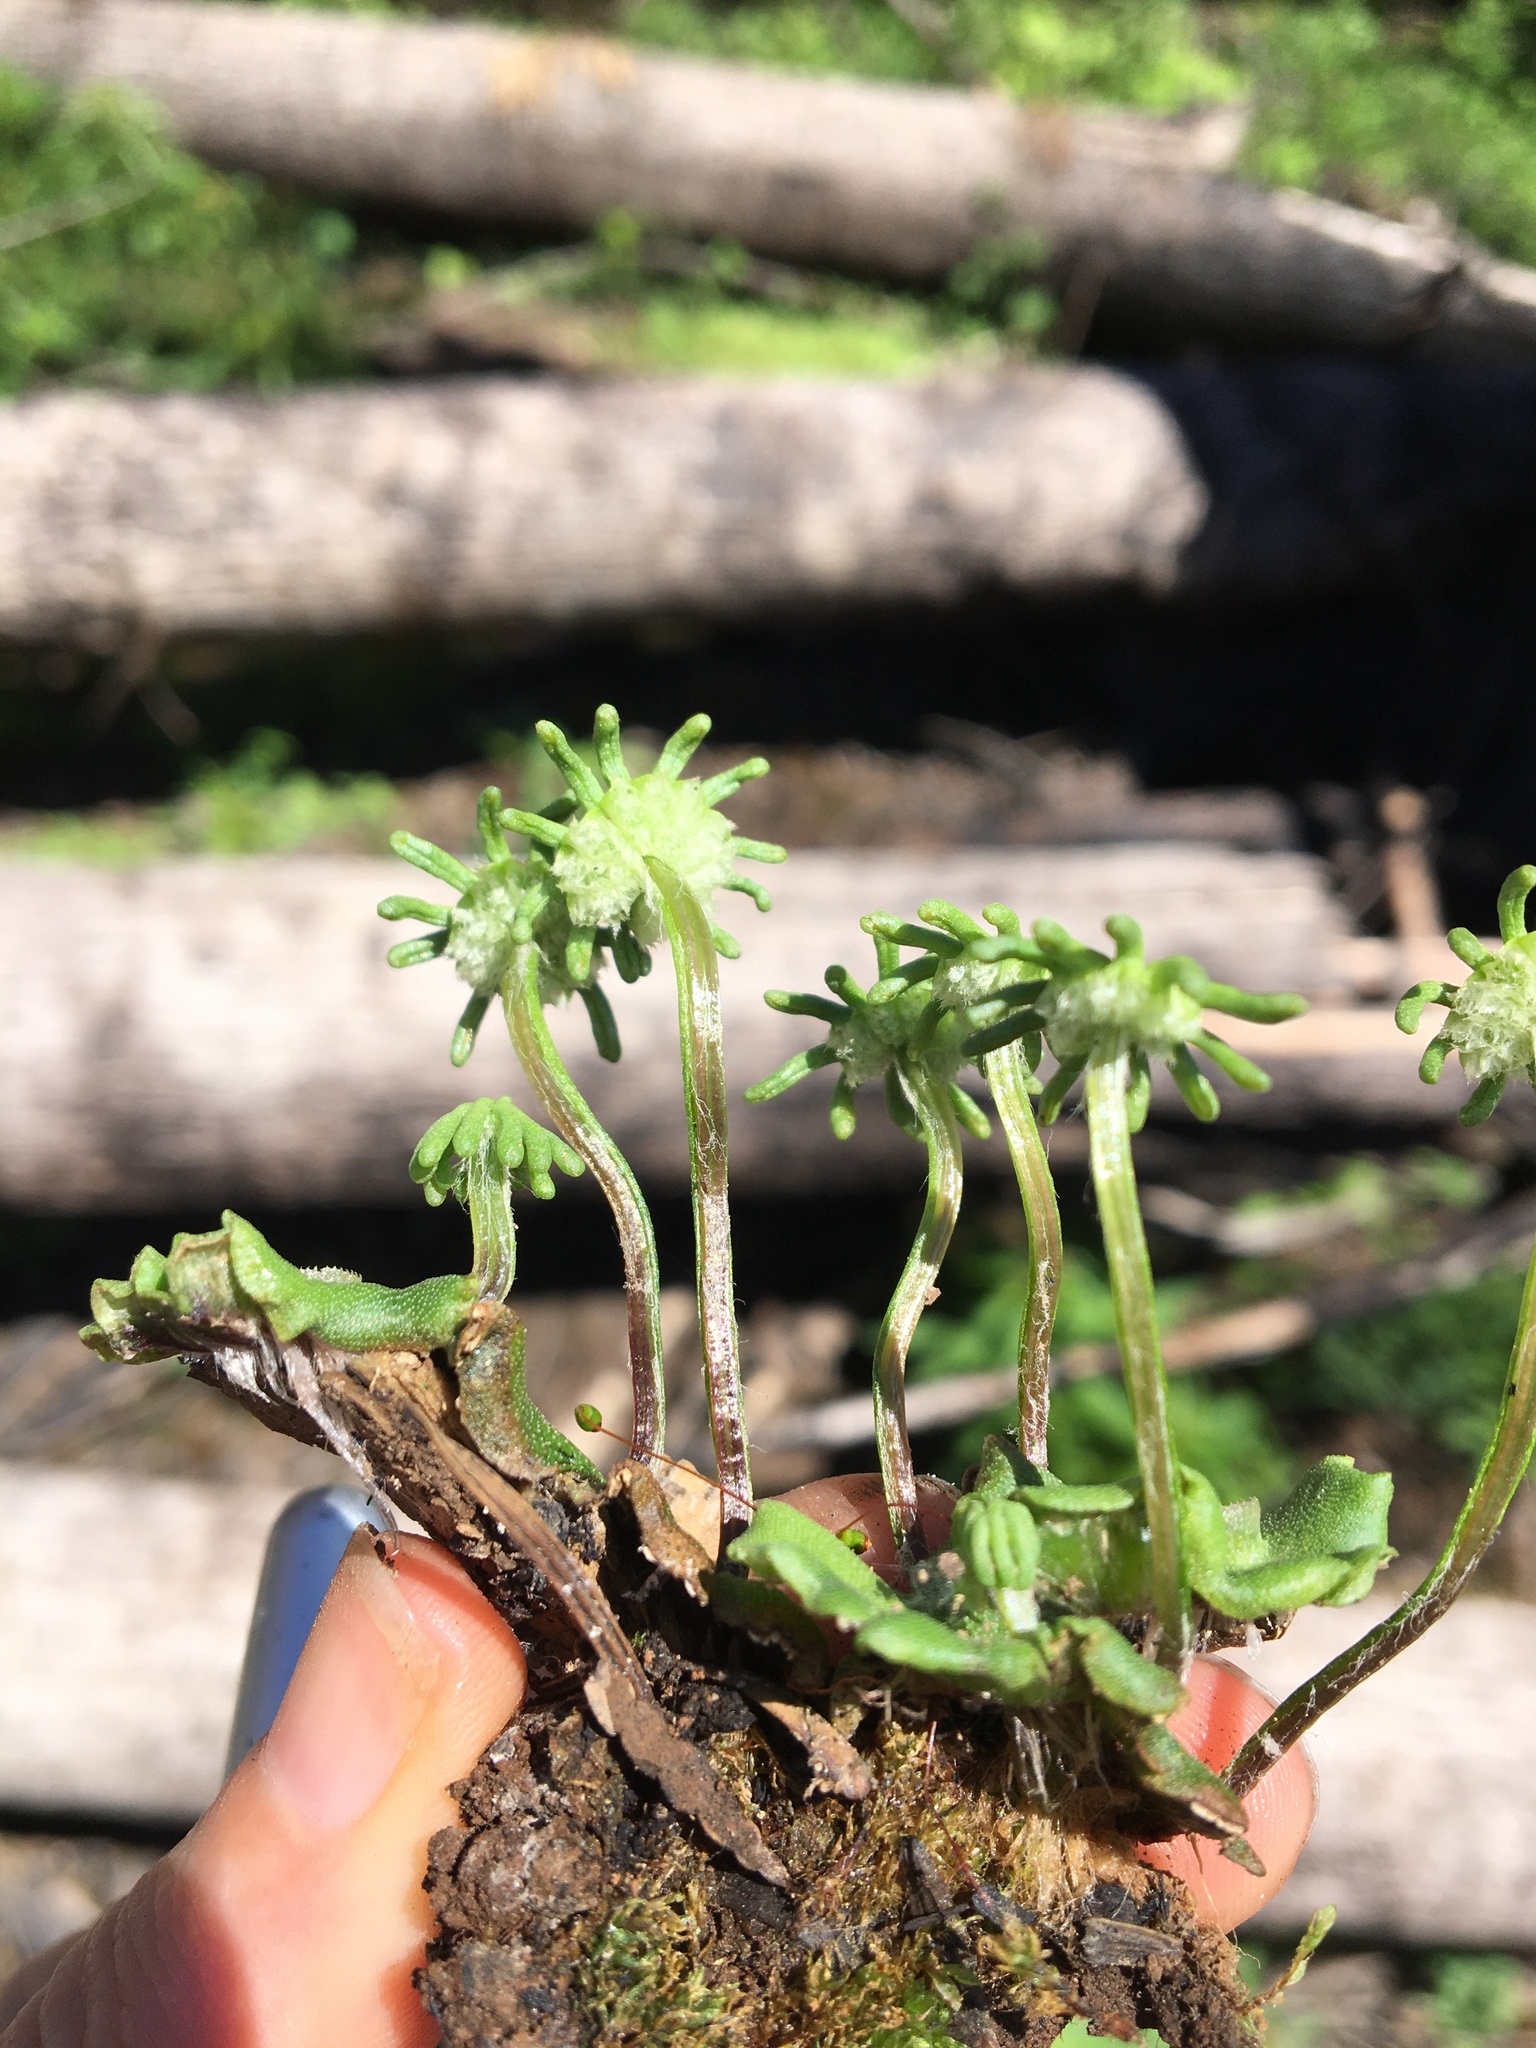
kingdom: Plantae
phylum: Marchantiophyta
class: Marchantiopsida
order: Marchantiales
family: Marchantiaceae
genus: Marchantia
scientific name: Marchantia polymorpha
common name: Common liverwort
